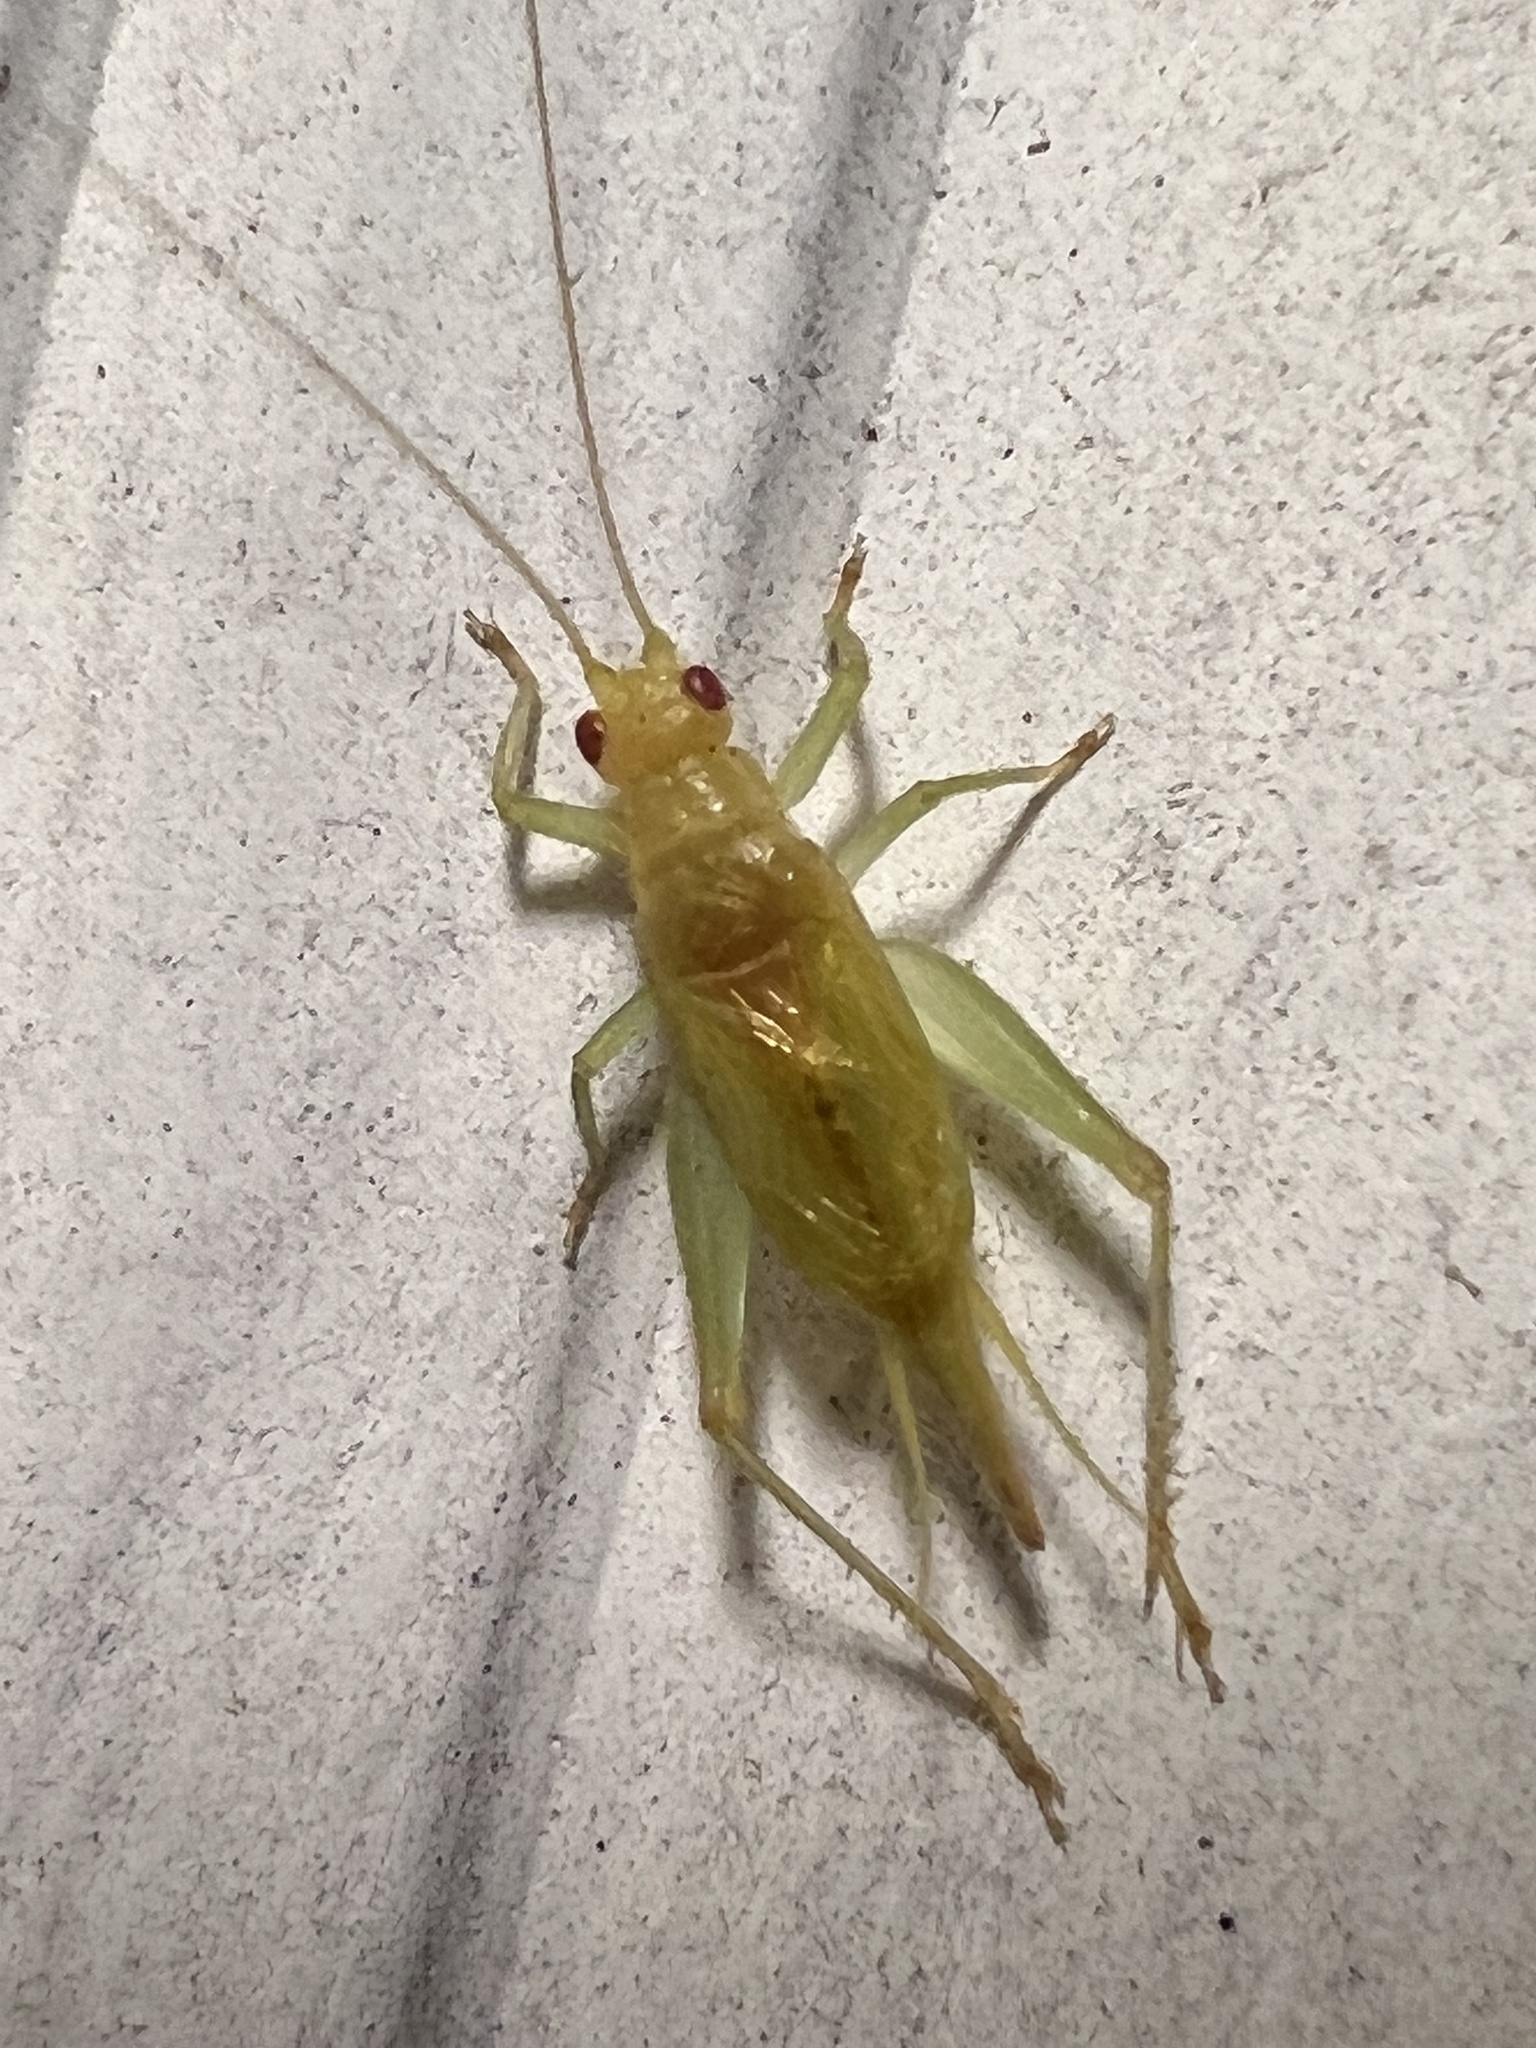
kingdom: Animalia
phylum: Arthropoda
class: Insecta
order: Orthoptera
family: Trigonidiidae
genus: Cyrtoxipha
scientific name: Cyrtoxipha columbiana
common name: Columbian trig
